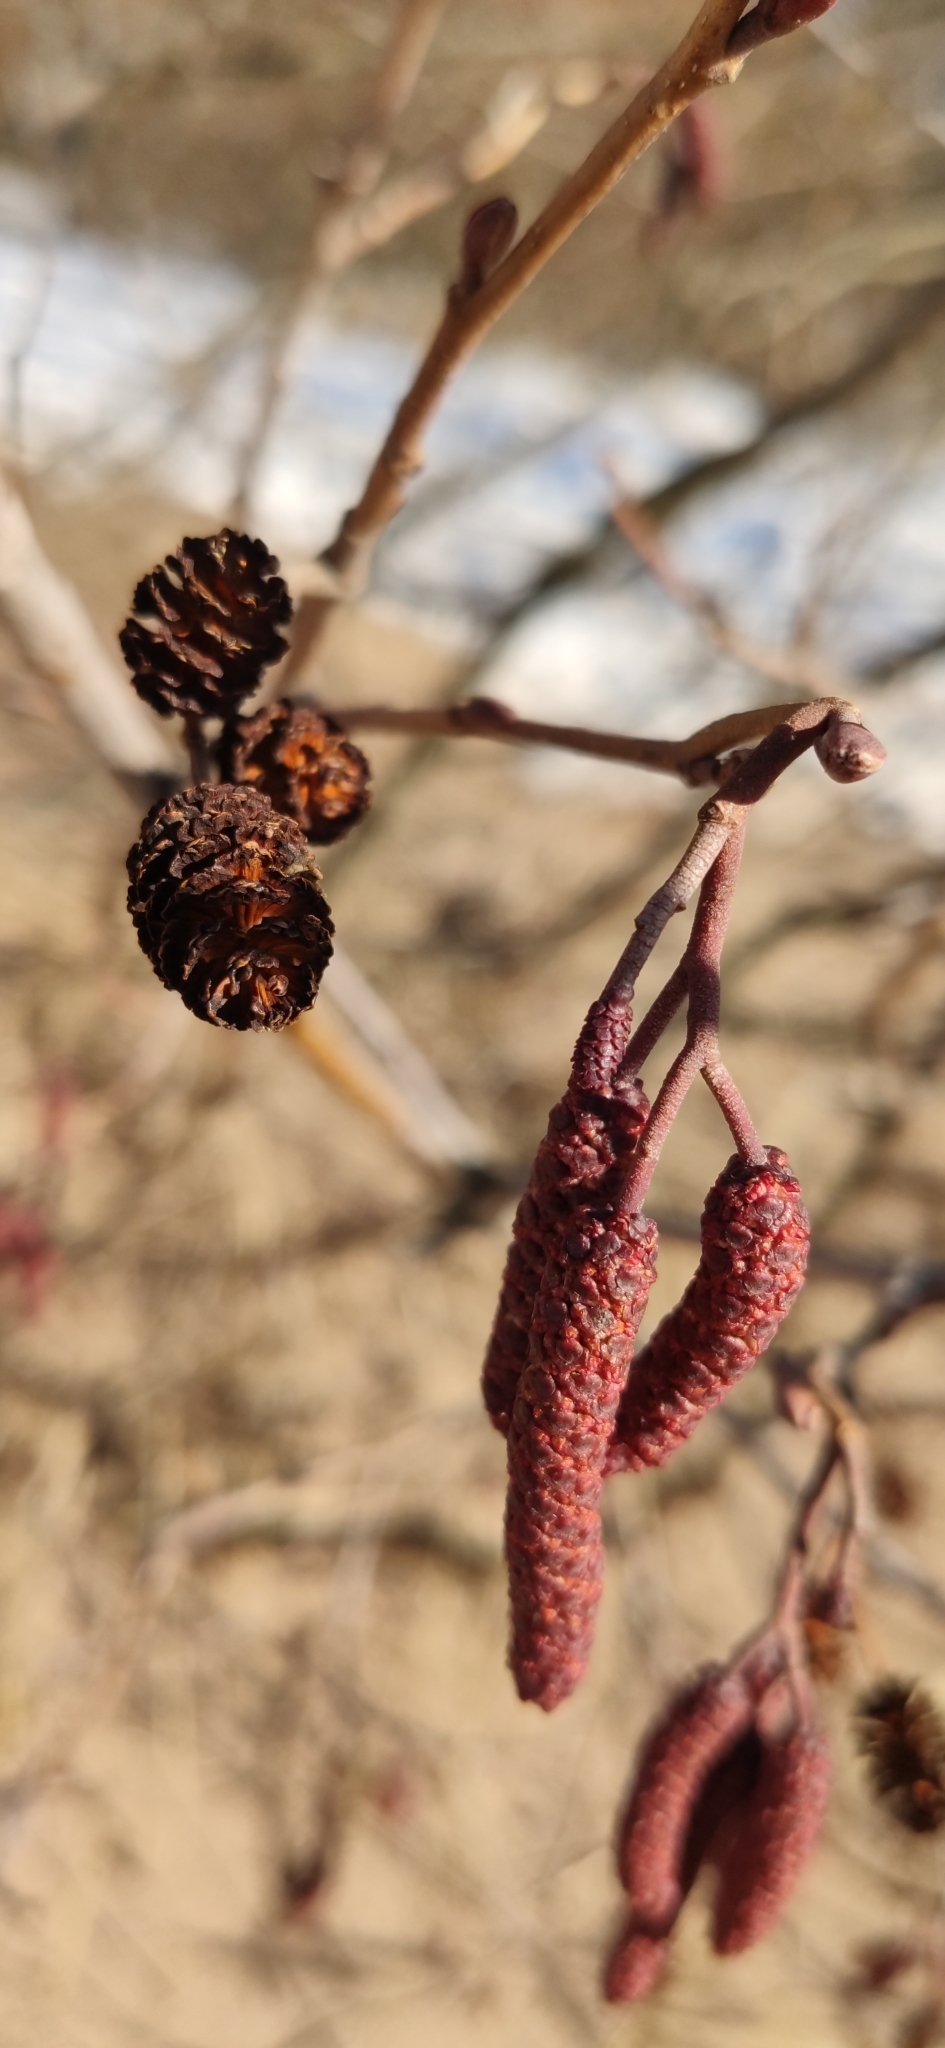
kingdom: Plantae
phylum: Tracheophyta
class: Magnoliopsida
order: Fagales
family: Betulaceae
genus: Alnus
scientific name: Alnus glutinosa
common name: Black alder
